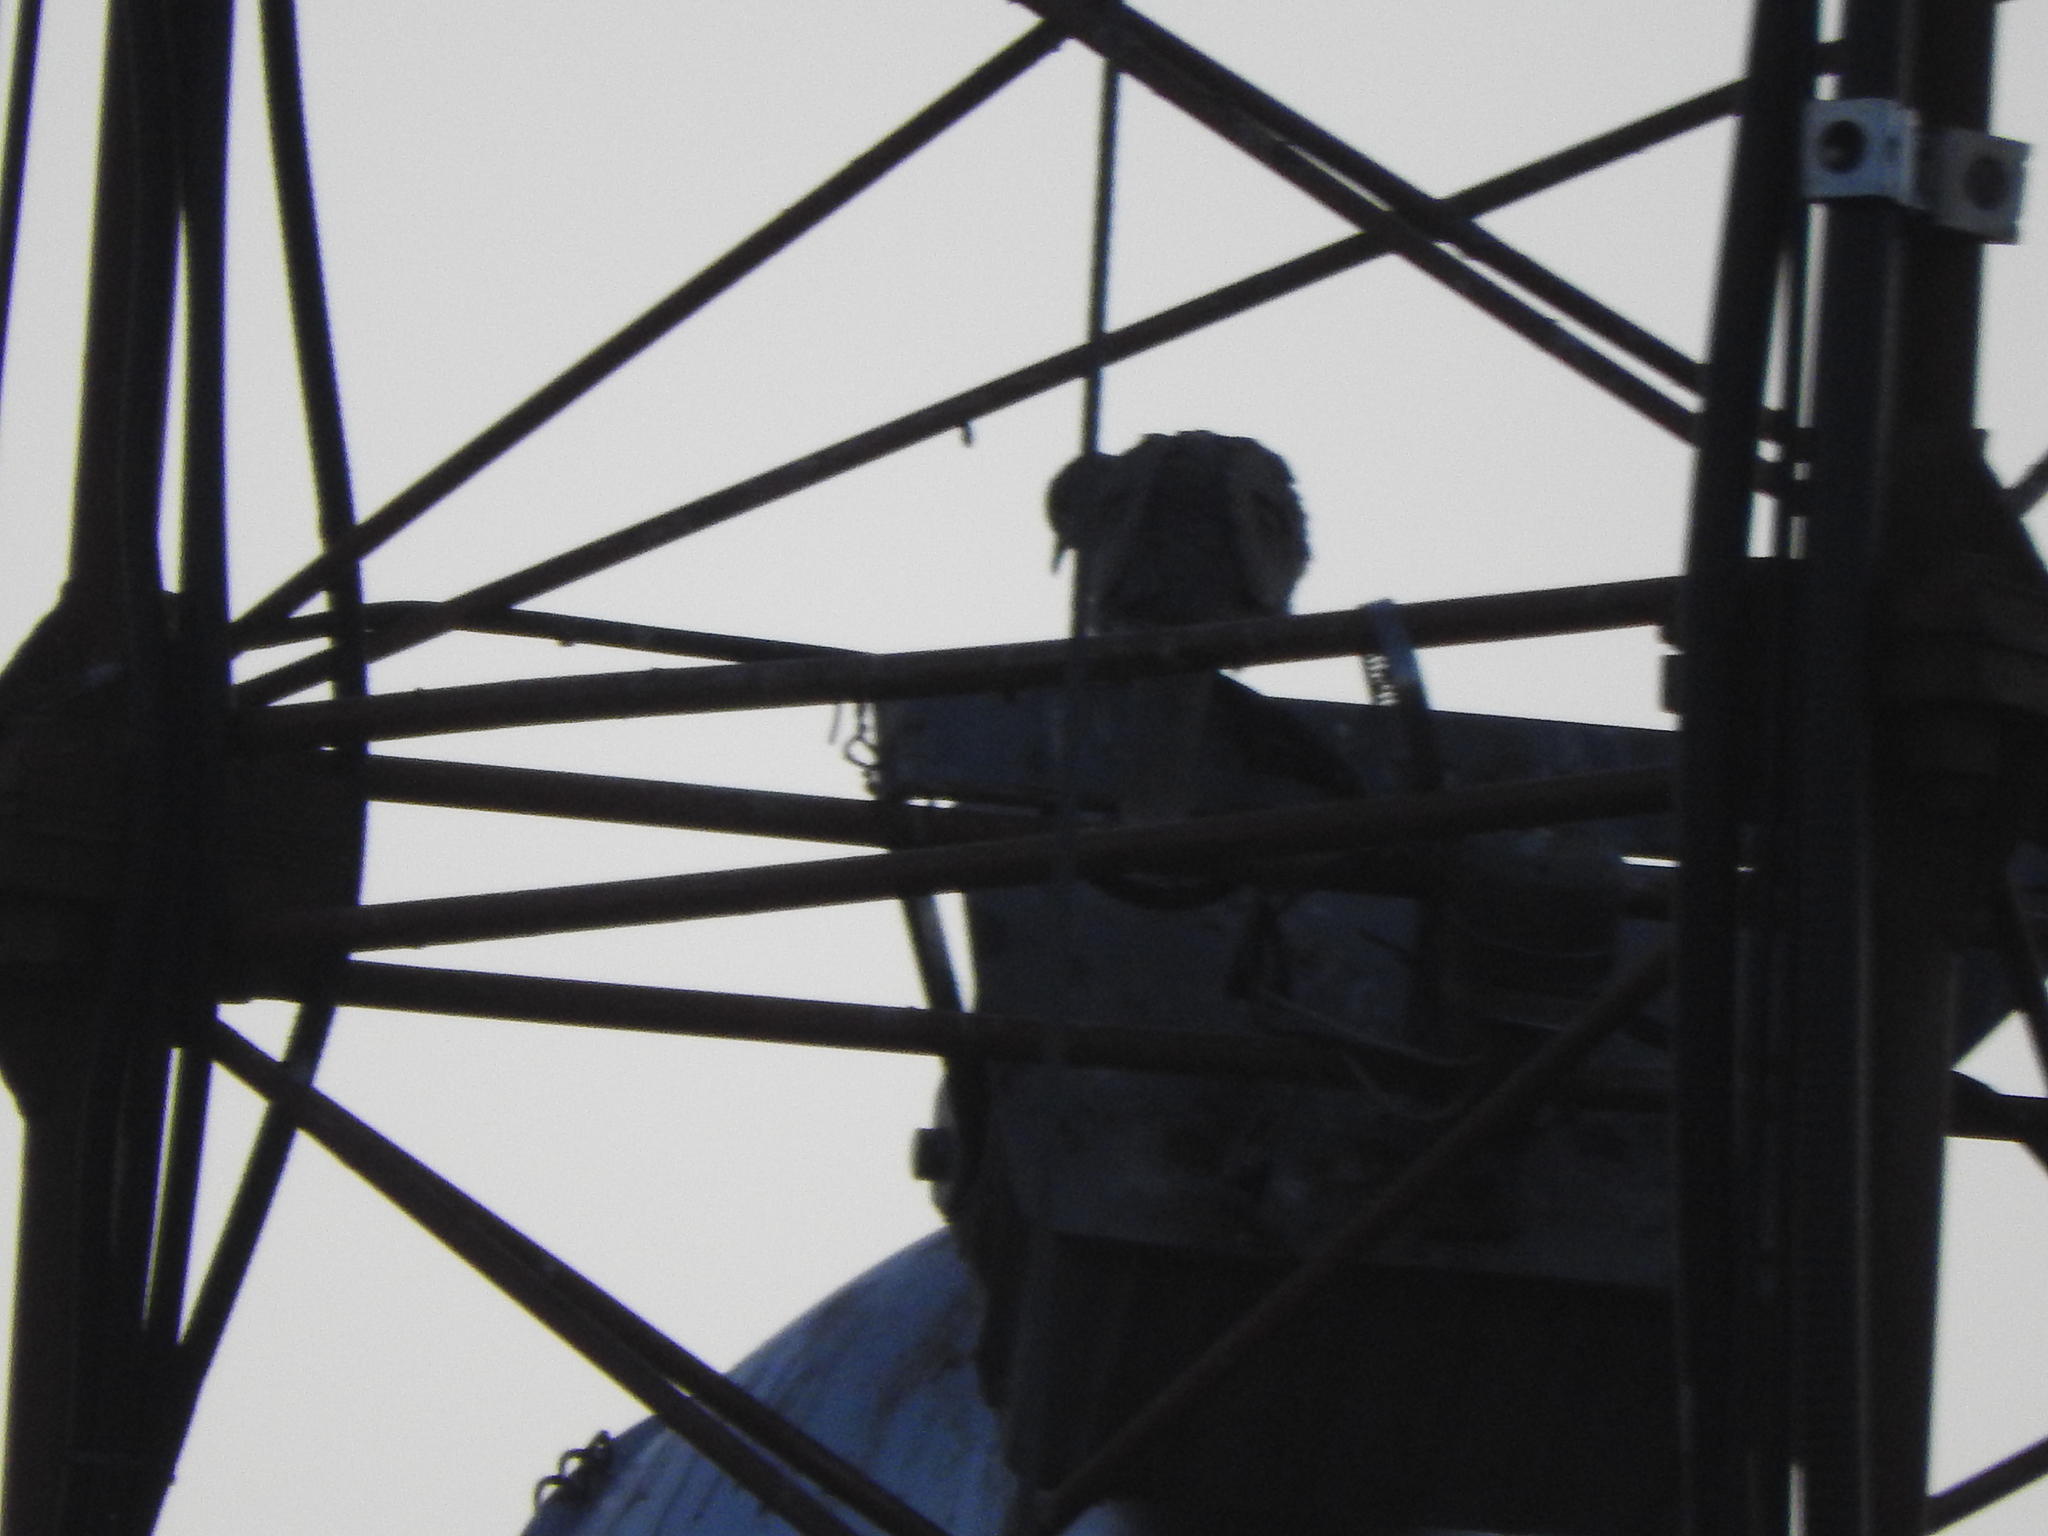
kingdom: Animalia
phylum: Chordata
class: Aves
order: Columbiformes
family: Columbidae
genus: Streptopelia
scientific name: Streptopelia decaocto
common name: Eurasian collared dove
